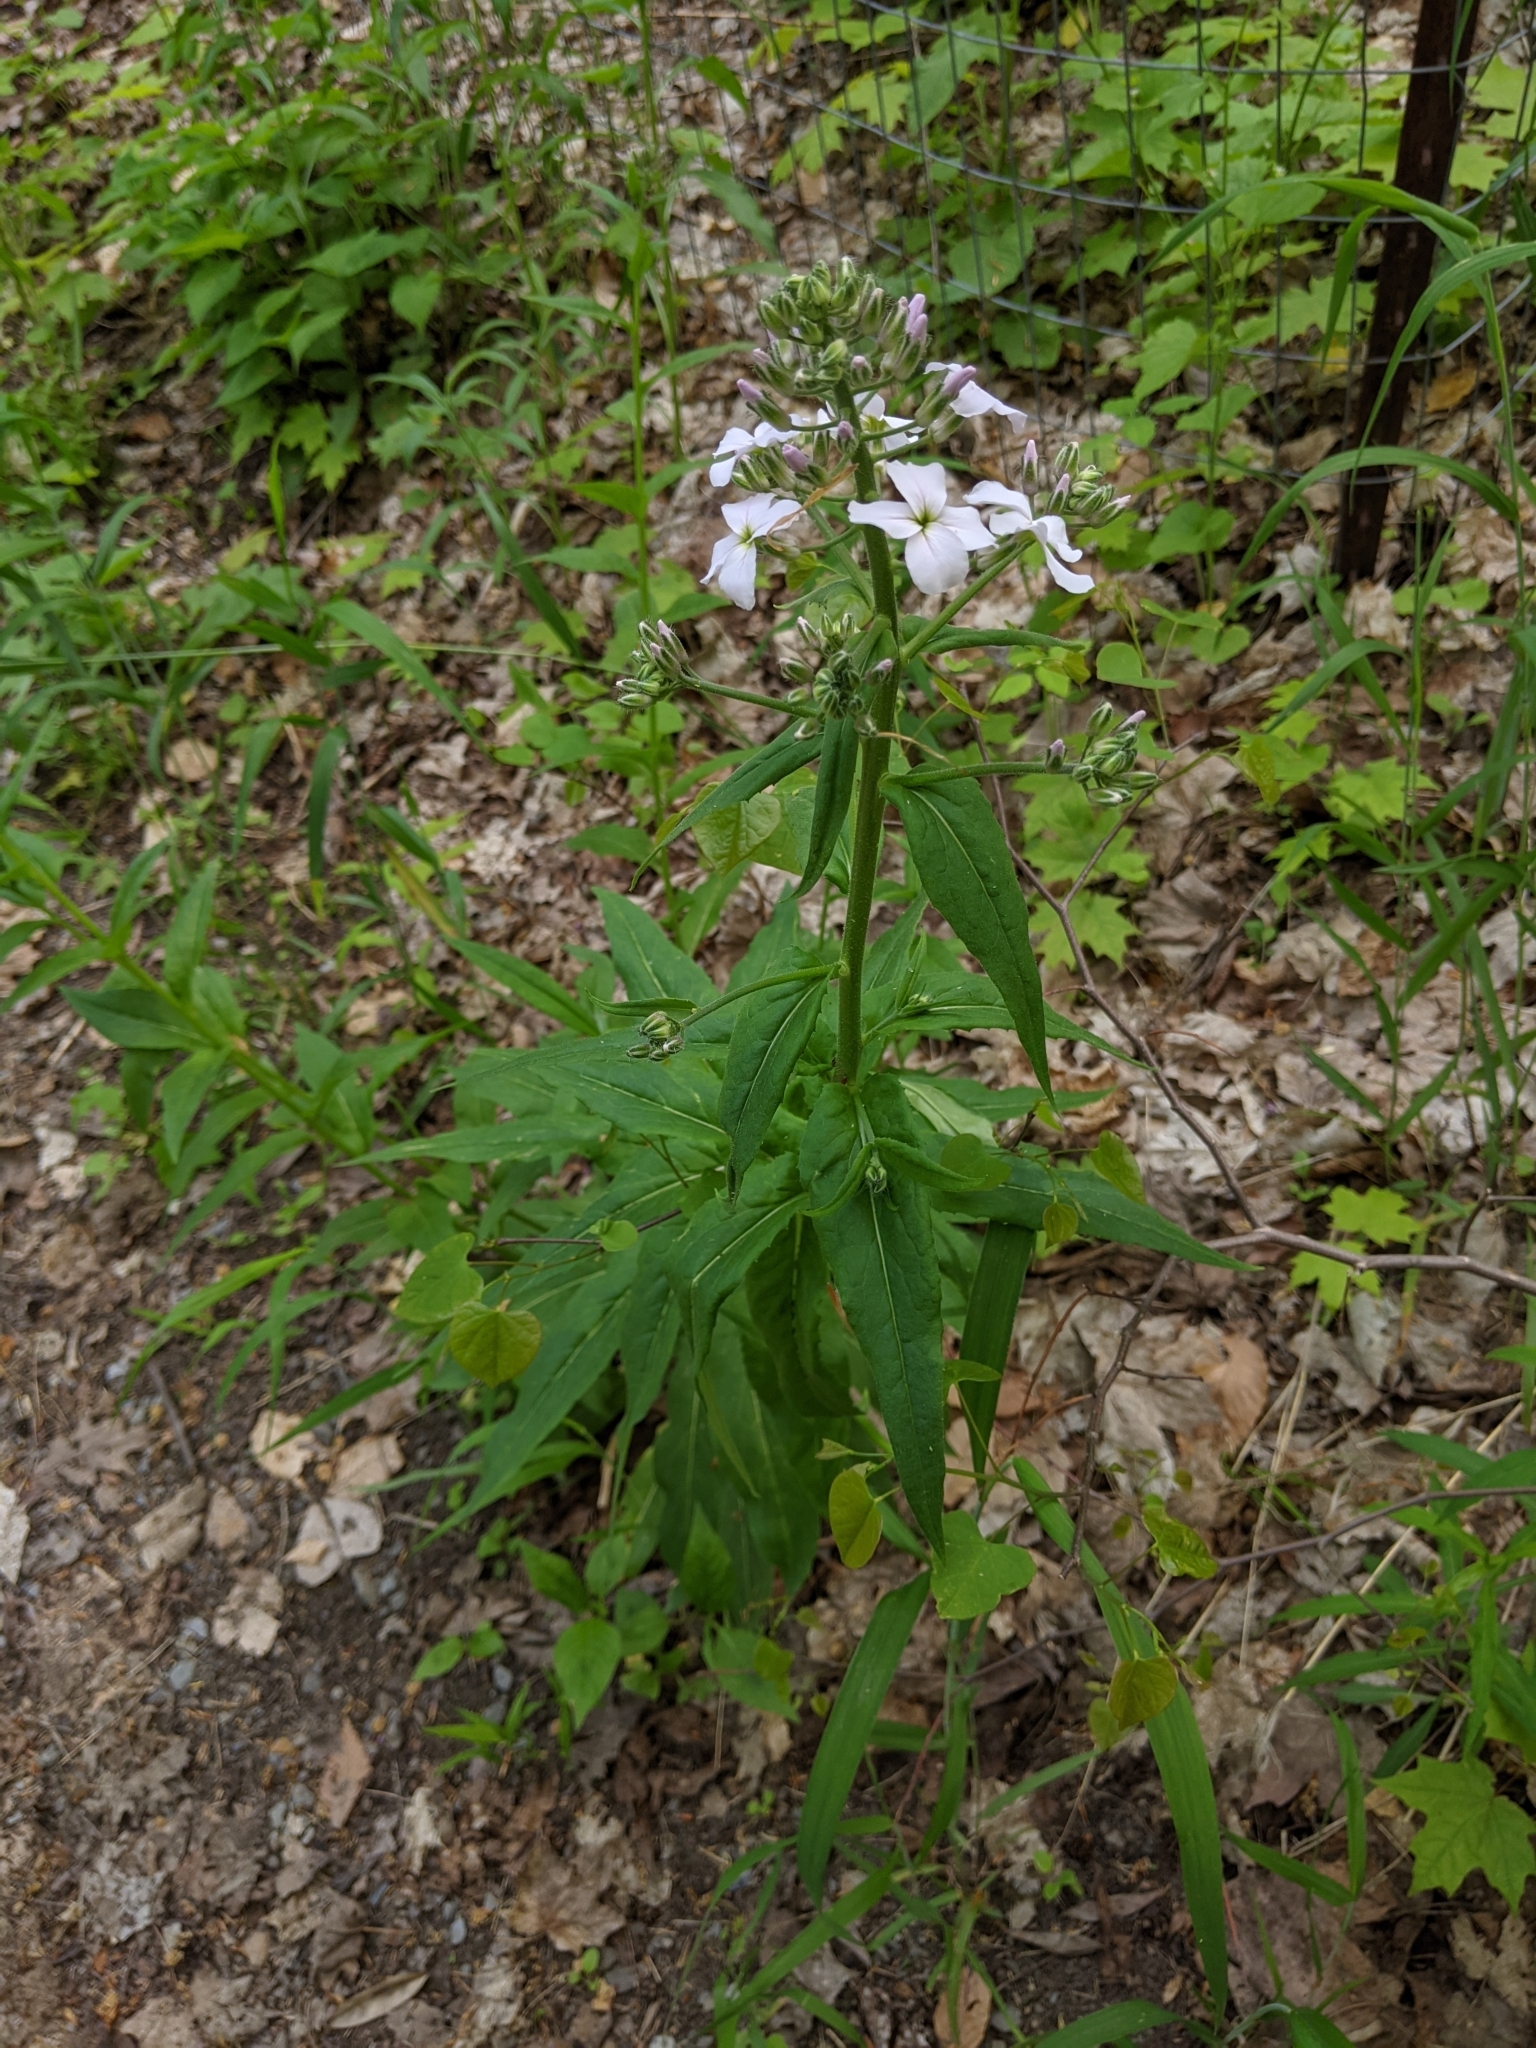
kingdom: Plantae
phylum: Tracheophyta
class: Magnoliopsida
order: Brassicales
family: Brassicaceae
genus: Hesperis
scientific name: Hesperis matronalis
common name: Dame's-violet
